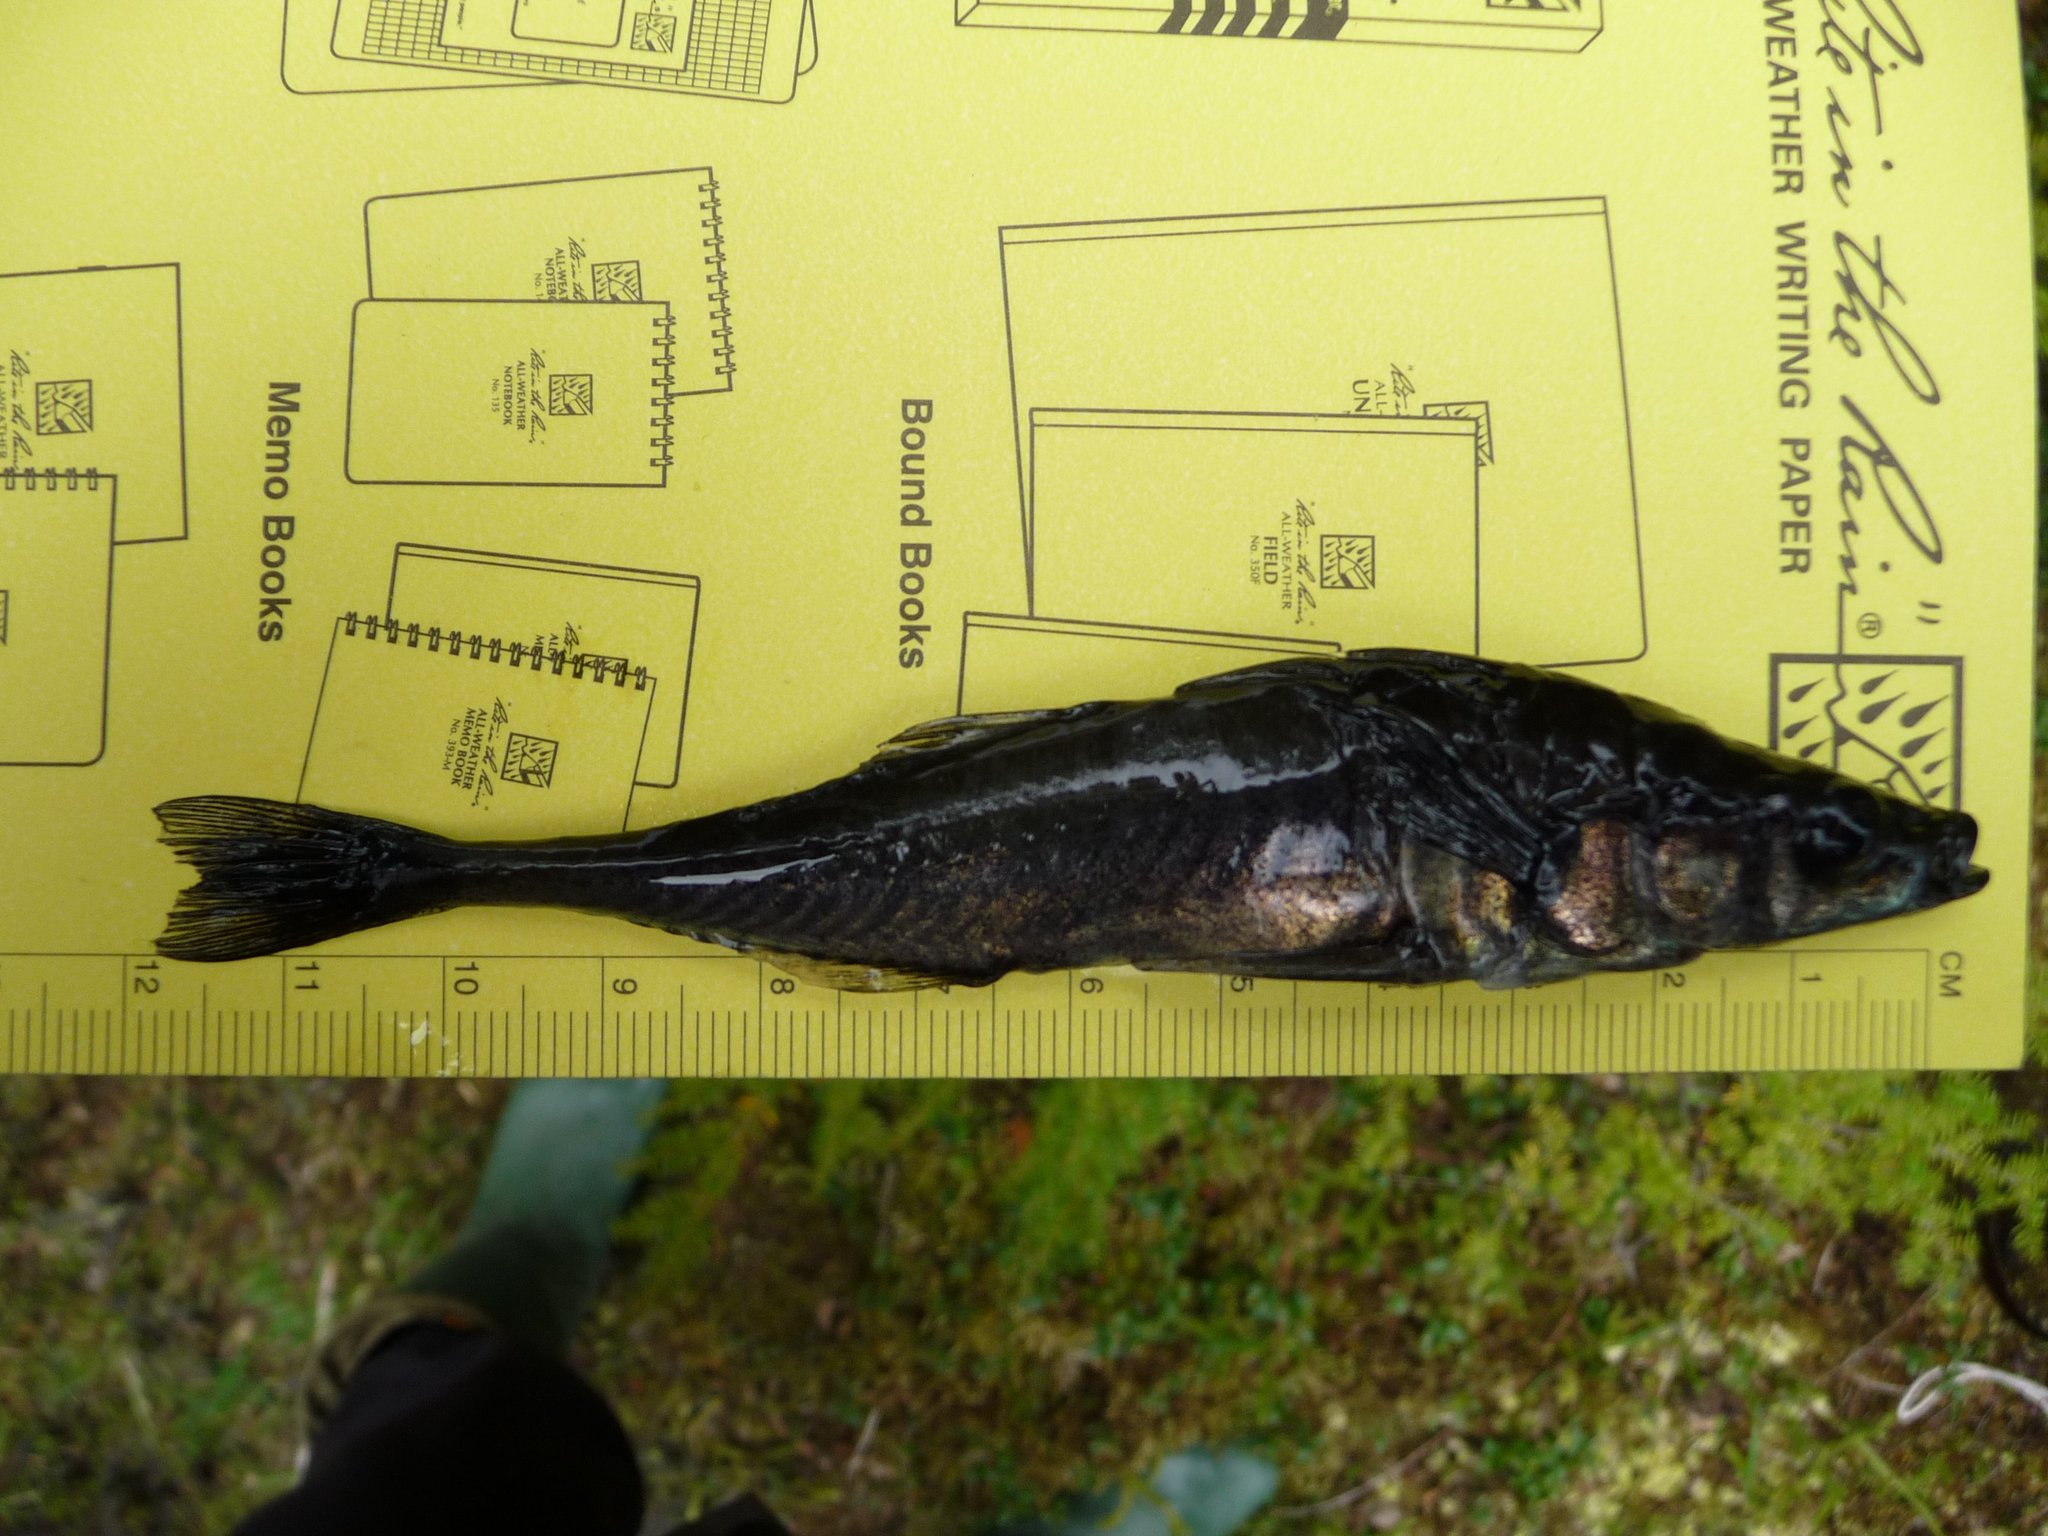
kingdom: Animalia
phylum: Chordata
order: Gasterosteiformes
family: Gasterosteidae
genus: Gasterosteus
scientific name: Gasterosteus aculeatus
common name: Three-spined stickleback
